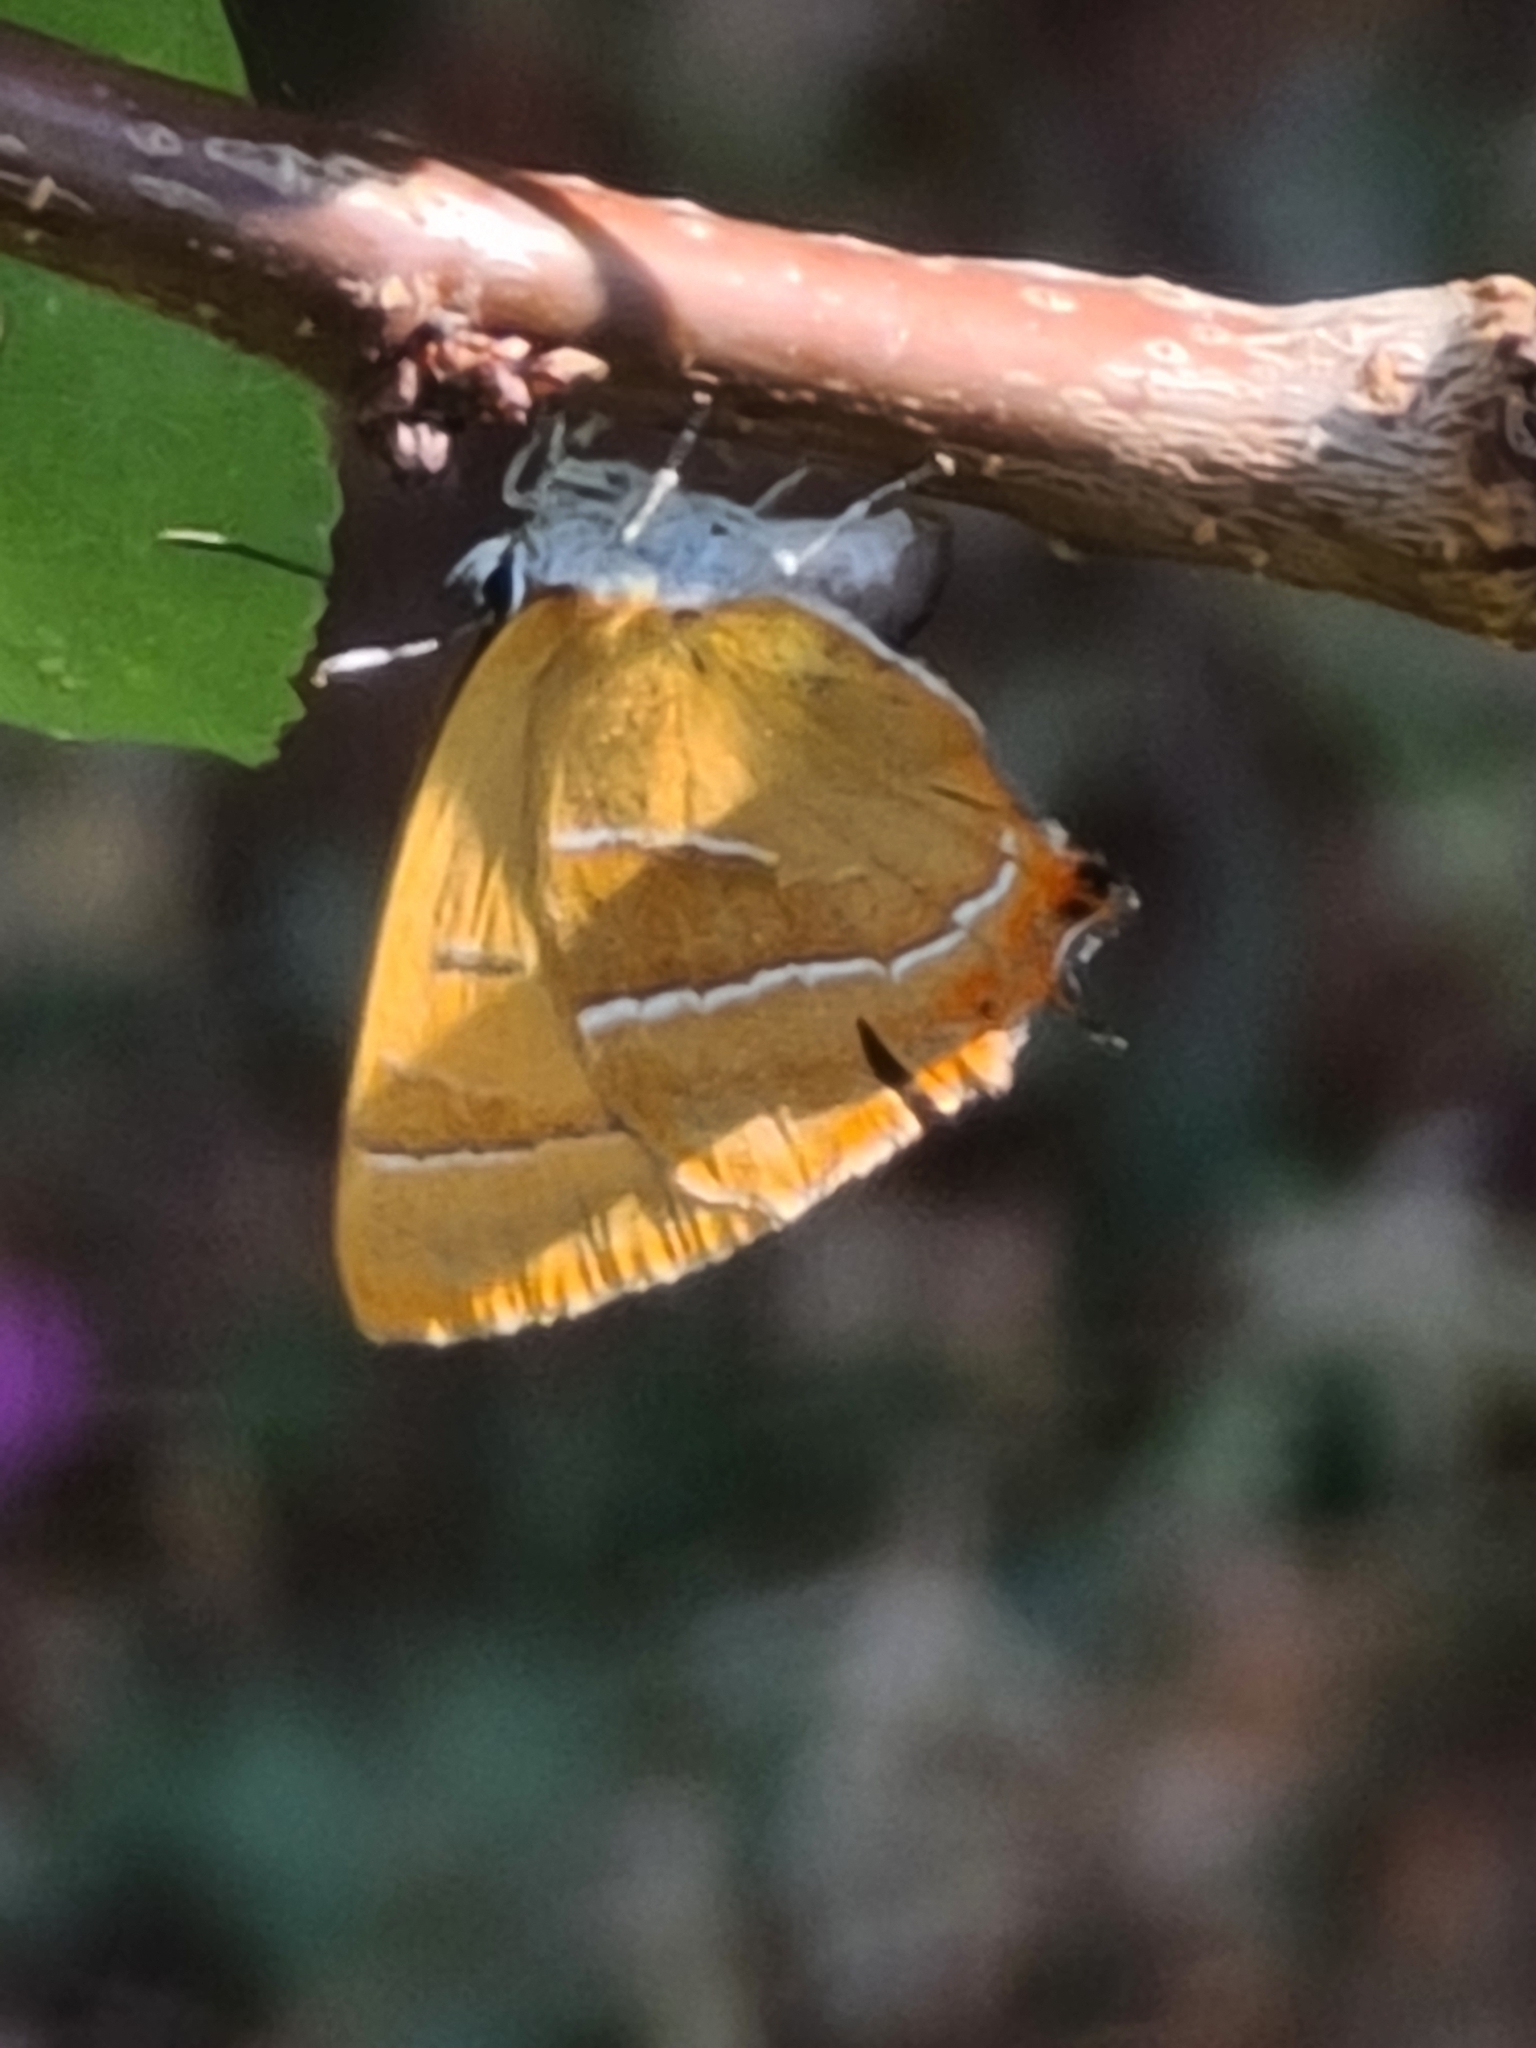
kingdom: Animalia
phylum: Arthropoda
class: Insecta
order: Lepidoptera
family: Lycaenidae
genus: Thecla
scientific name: Thecla betulae
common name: Brown hairstreak
